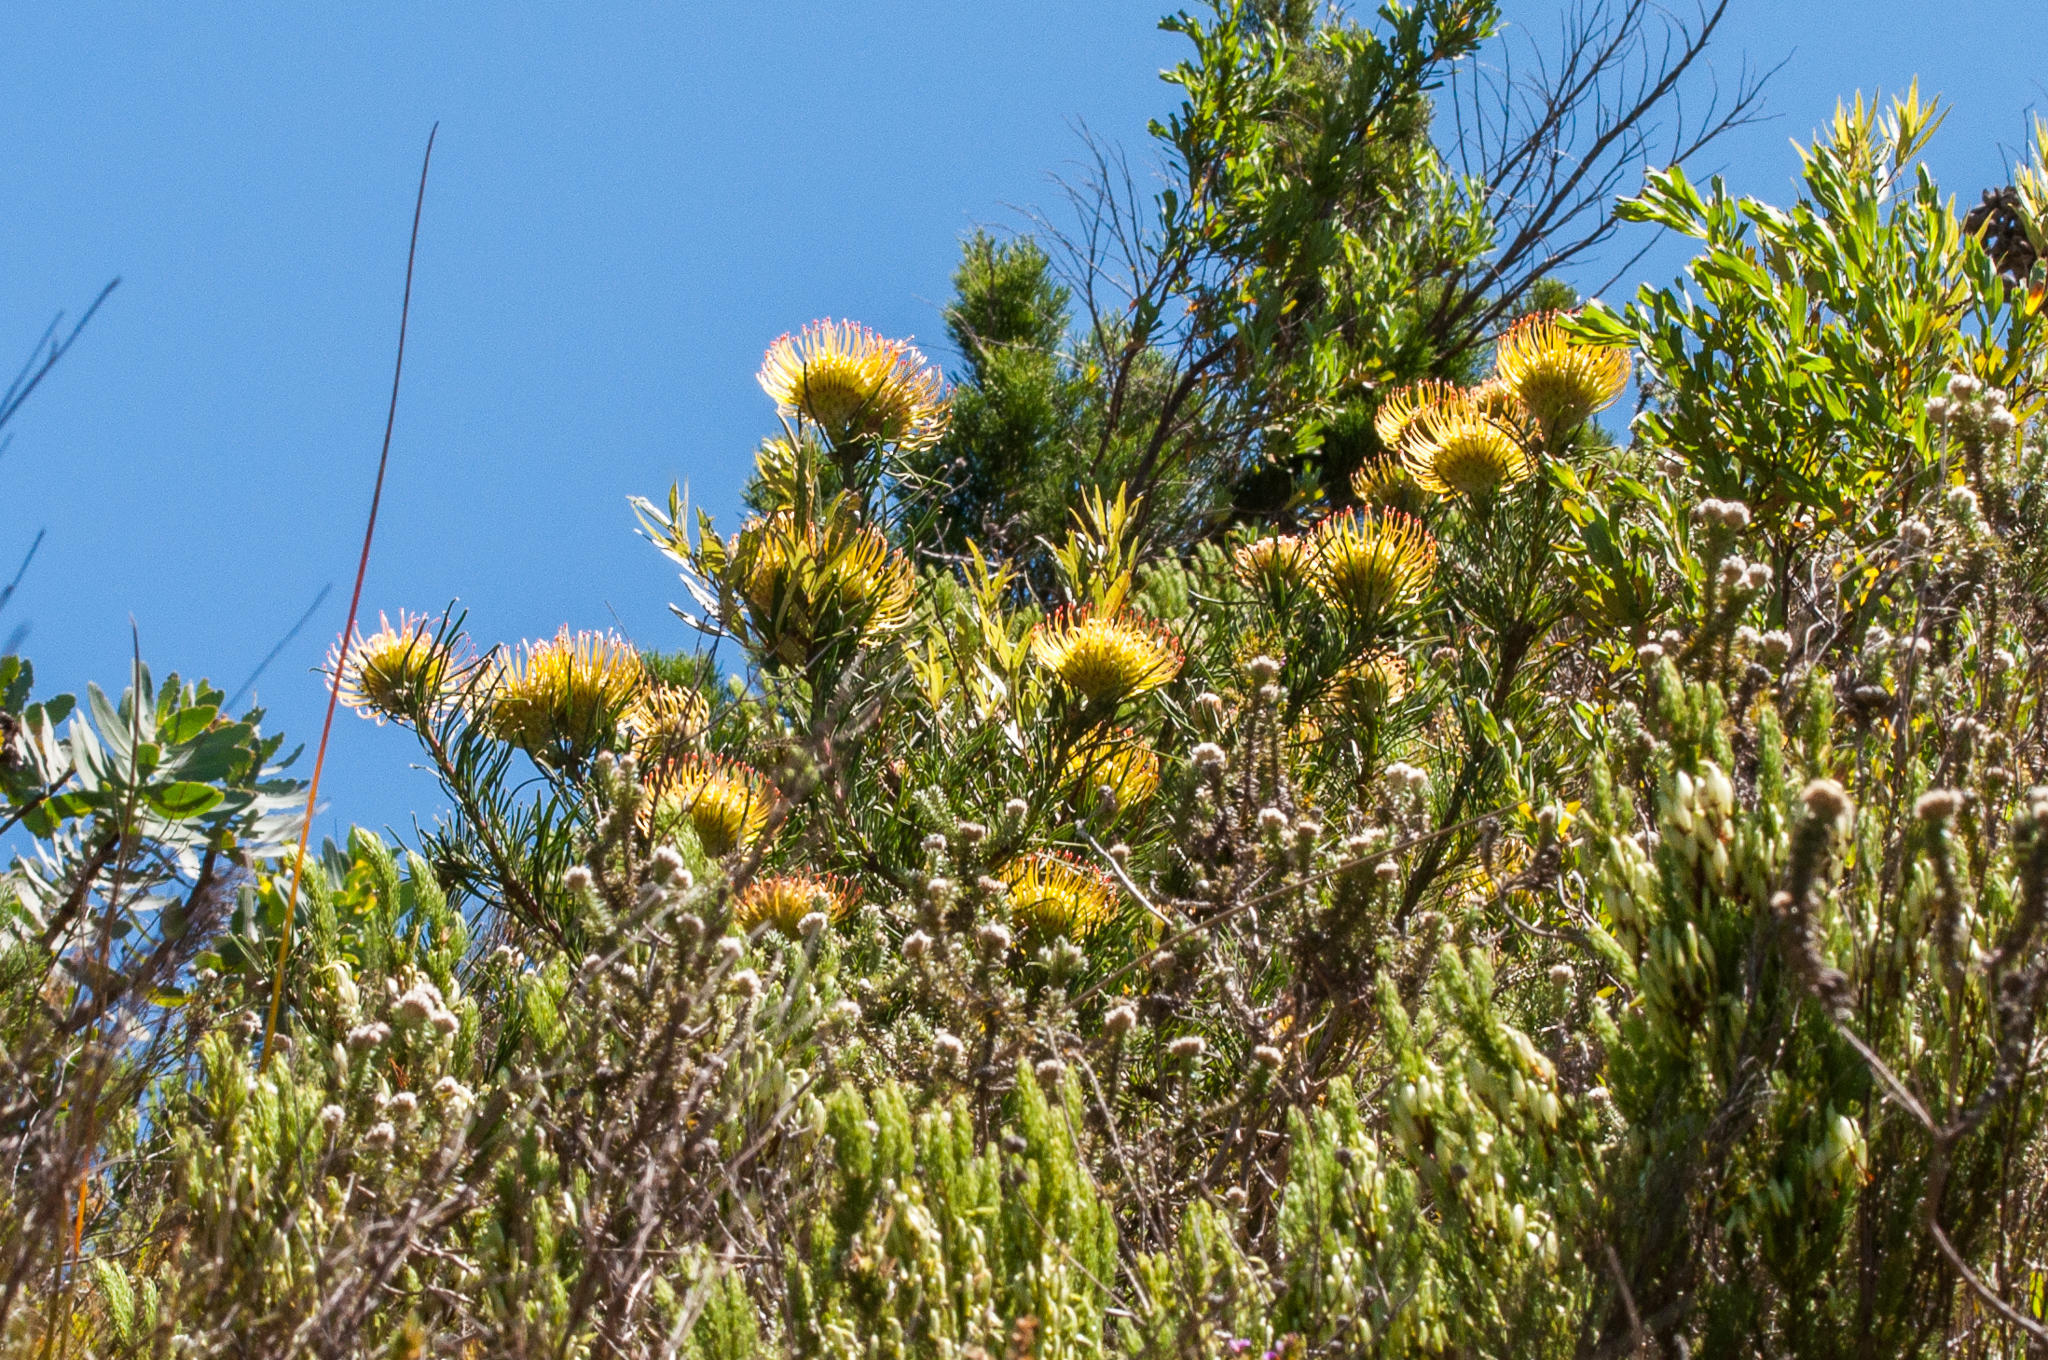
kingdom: Plantae
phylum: Tracheophyta
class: Magnoliopsida
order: Proteales
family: Proteaceae
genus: Leucospermum
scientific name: Leucospermum lineare
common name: Needle-leaf pincushion
